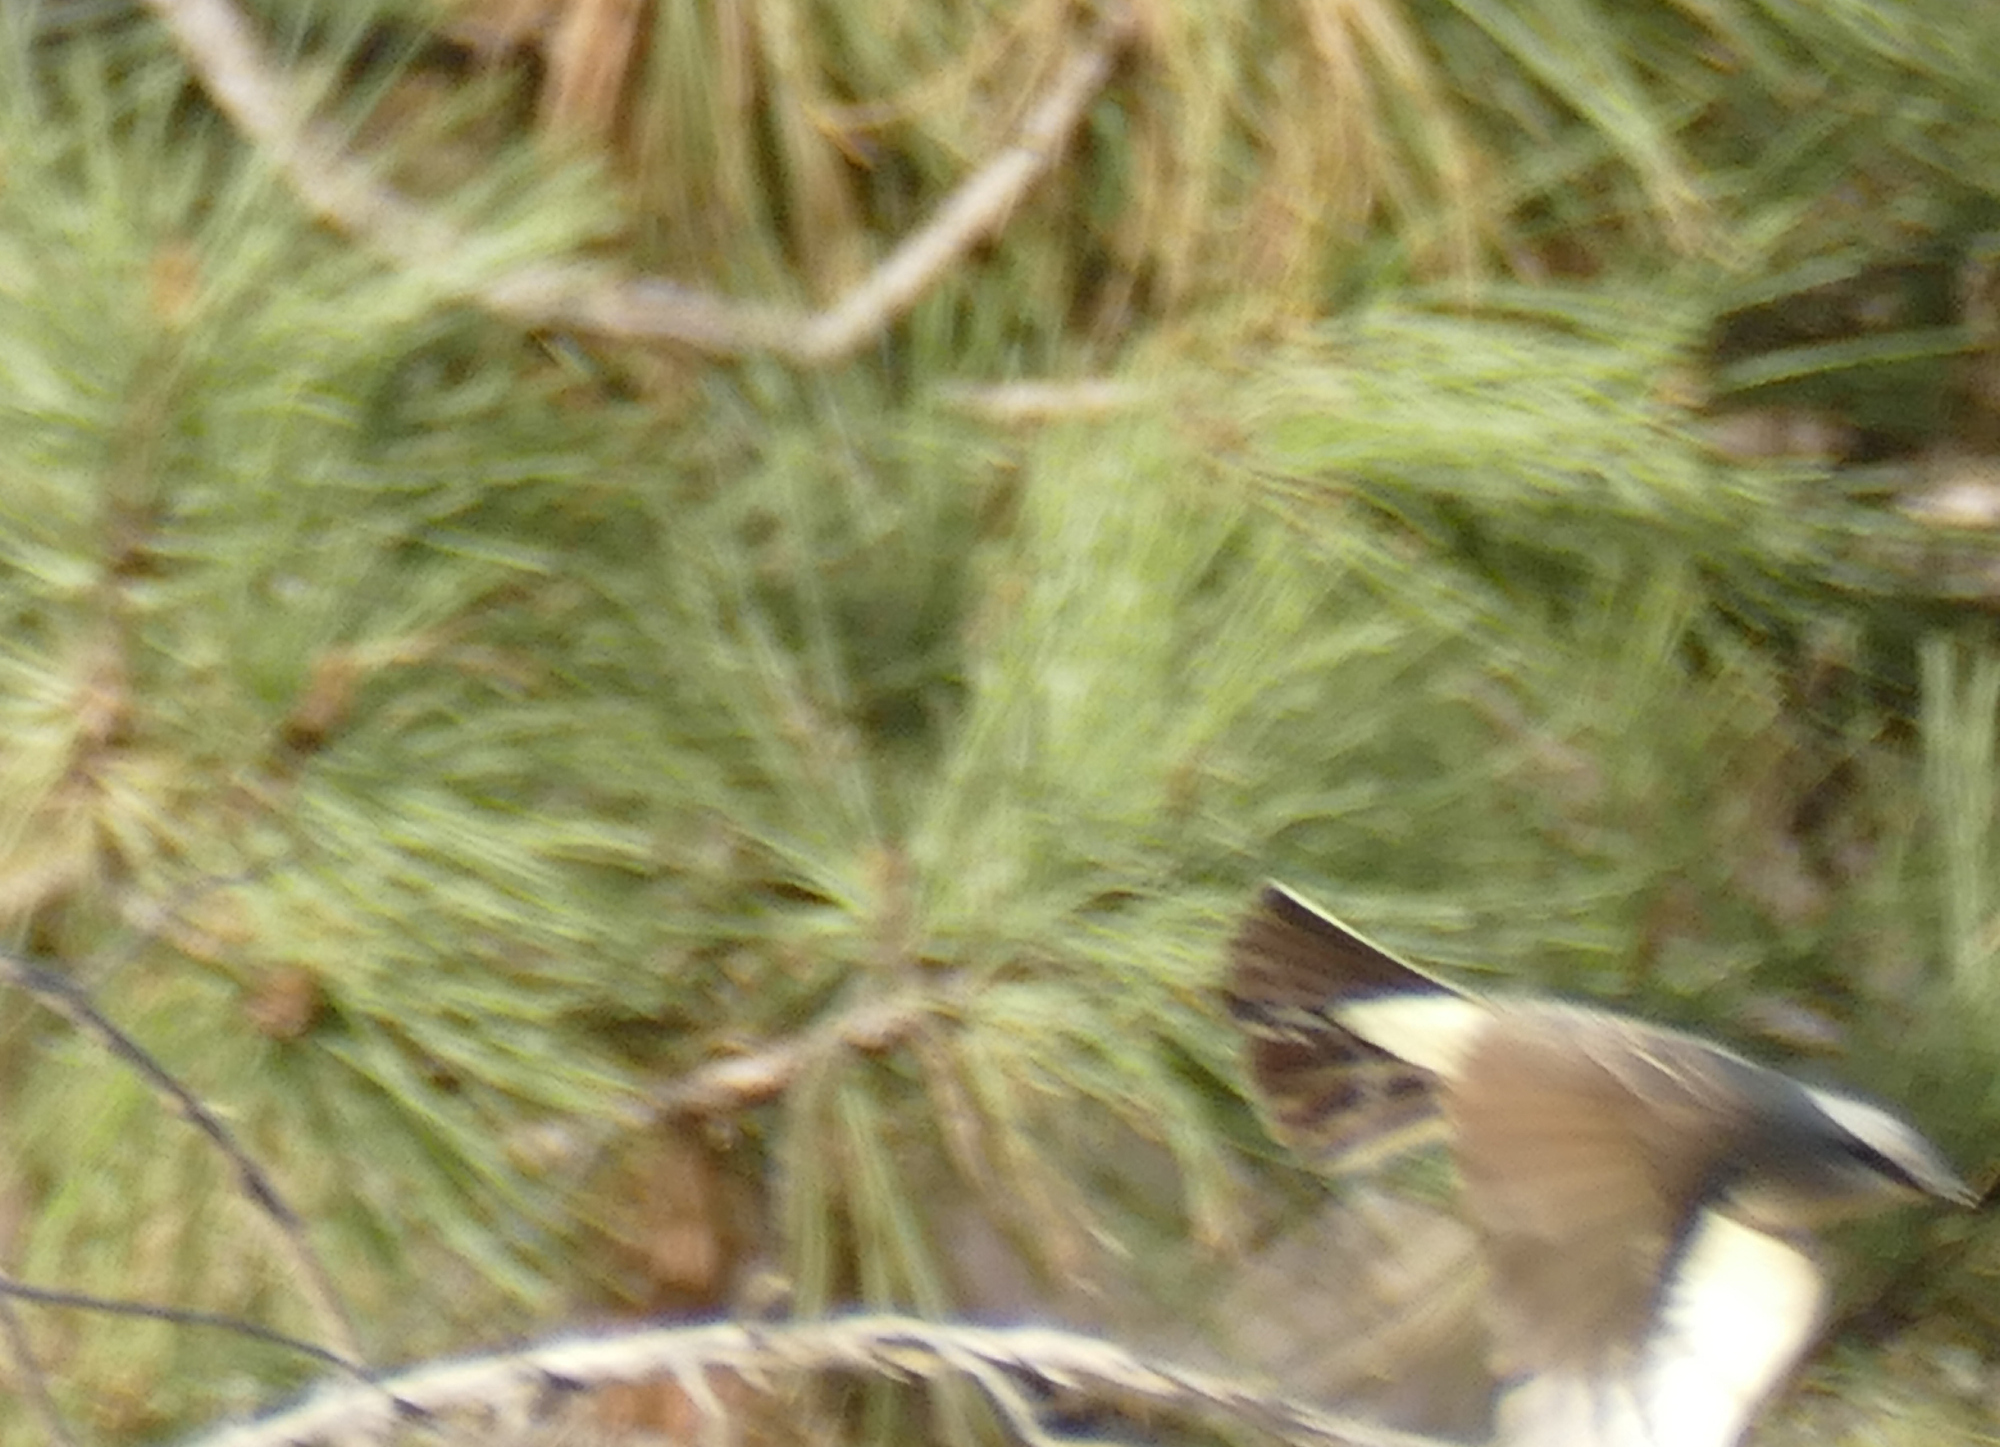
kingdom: Animalia
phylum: Chordata
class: Aves
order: Passeriformes
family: Tyrannidae
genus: Tyrannus
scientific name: Tyrannus verticalis
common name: Western kingbird
